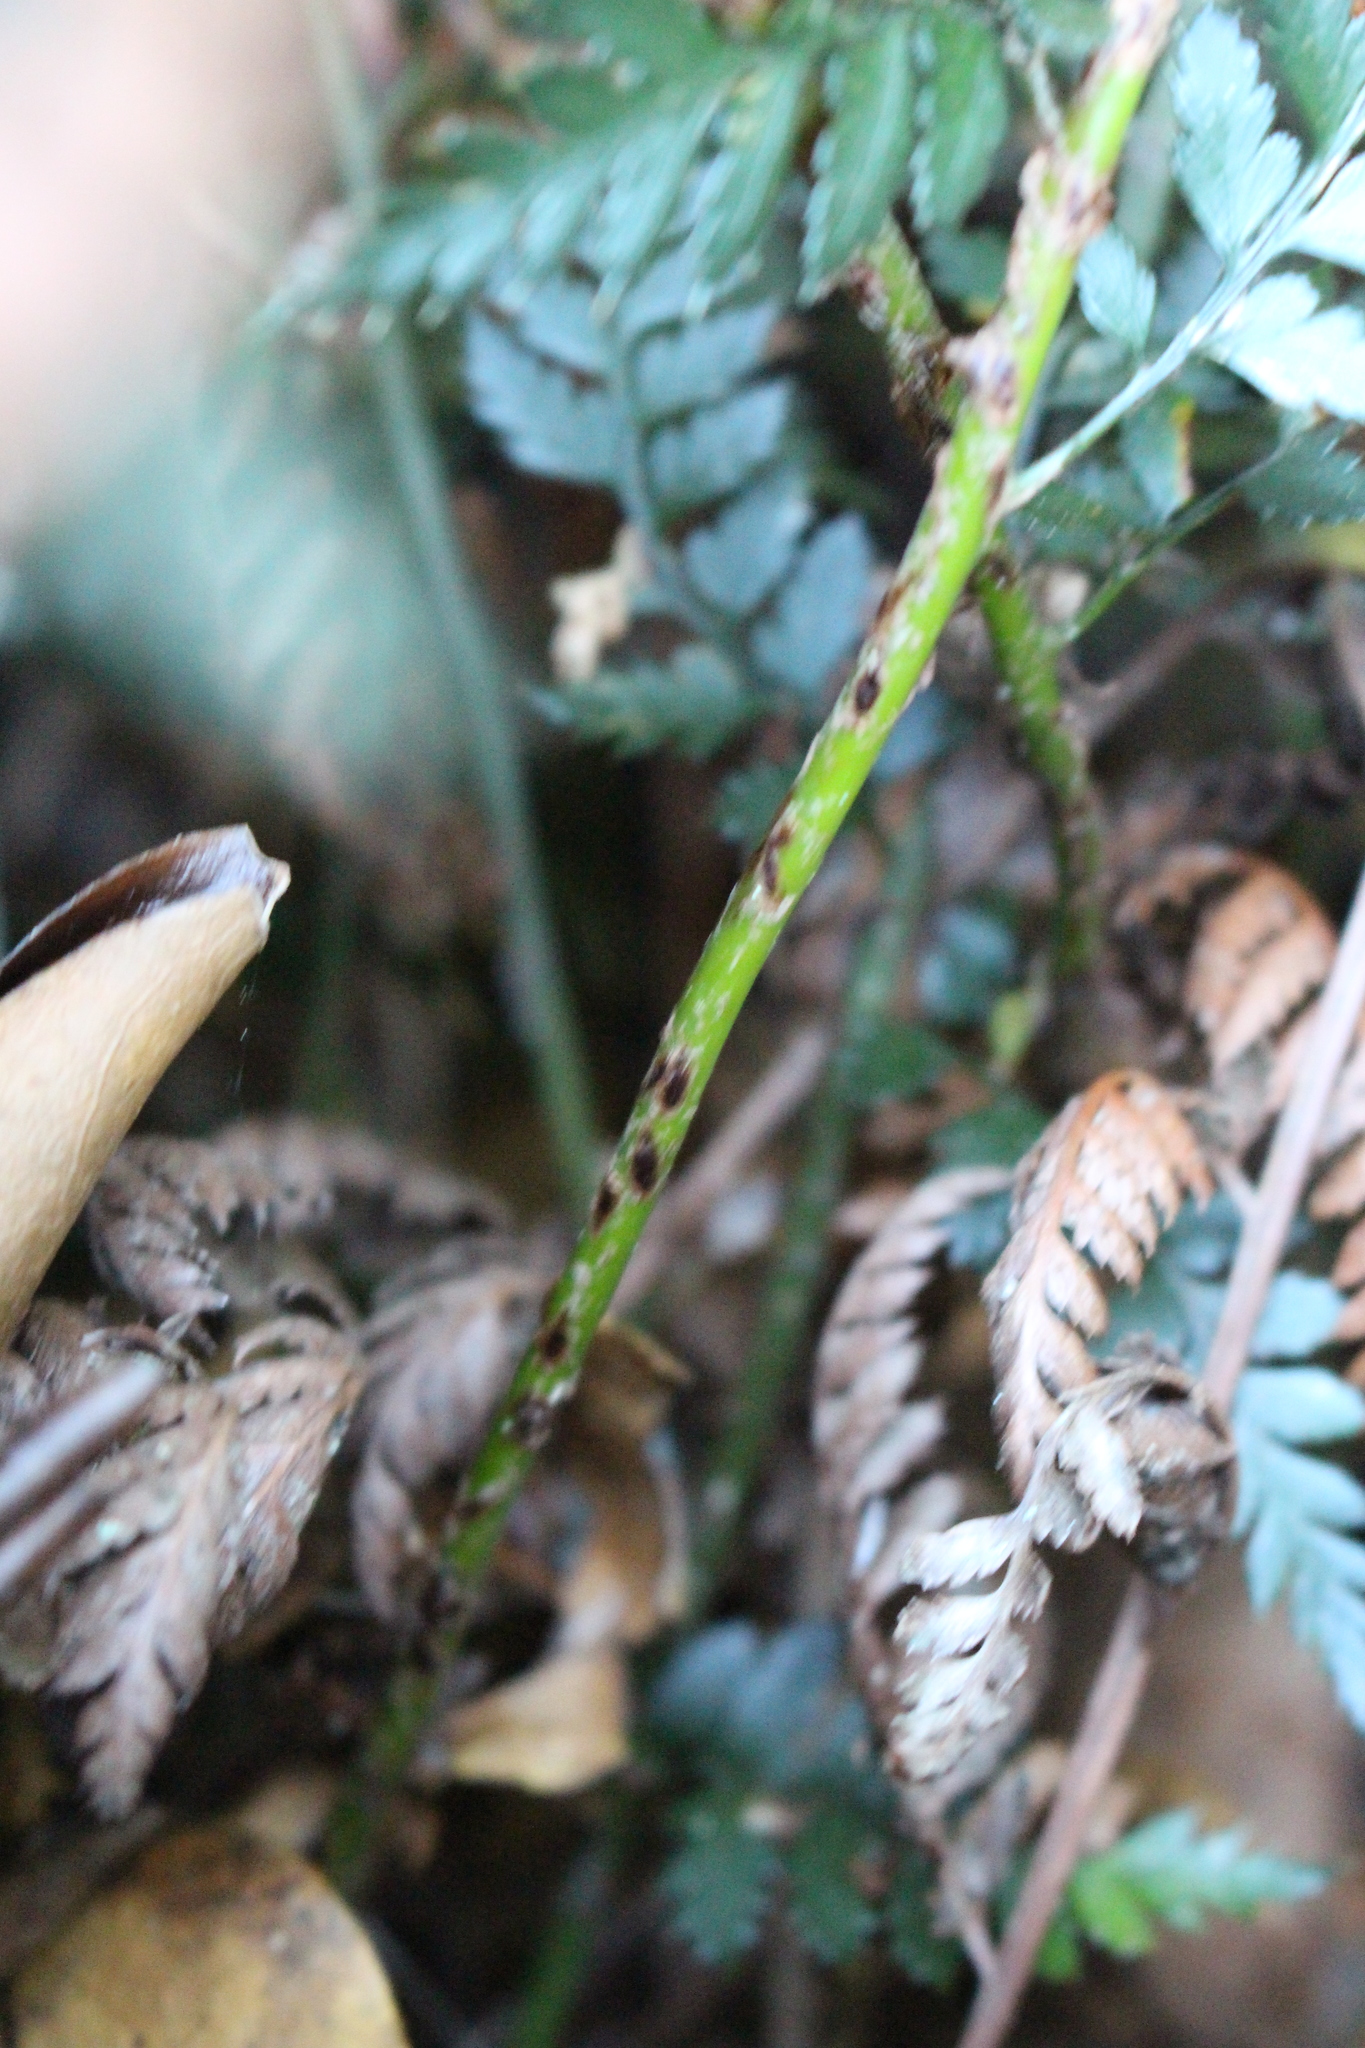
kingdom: Plantae
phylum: Tracheophyta
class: Polypodiopsida
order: Polypodiales
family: Dryopteridaceae
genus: Polystichum
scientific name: Polystichum oculatum
